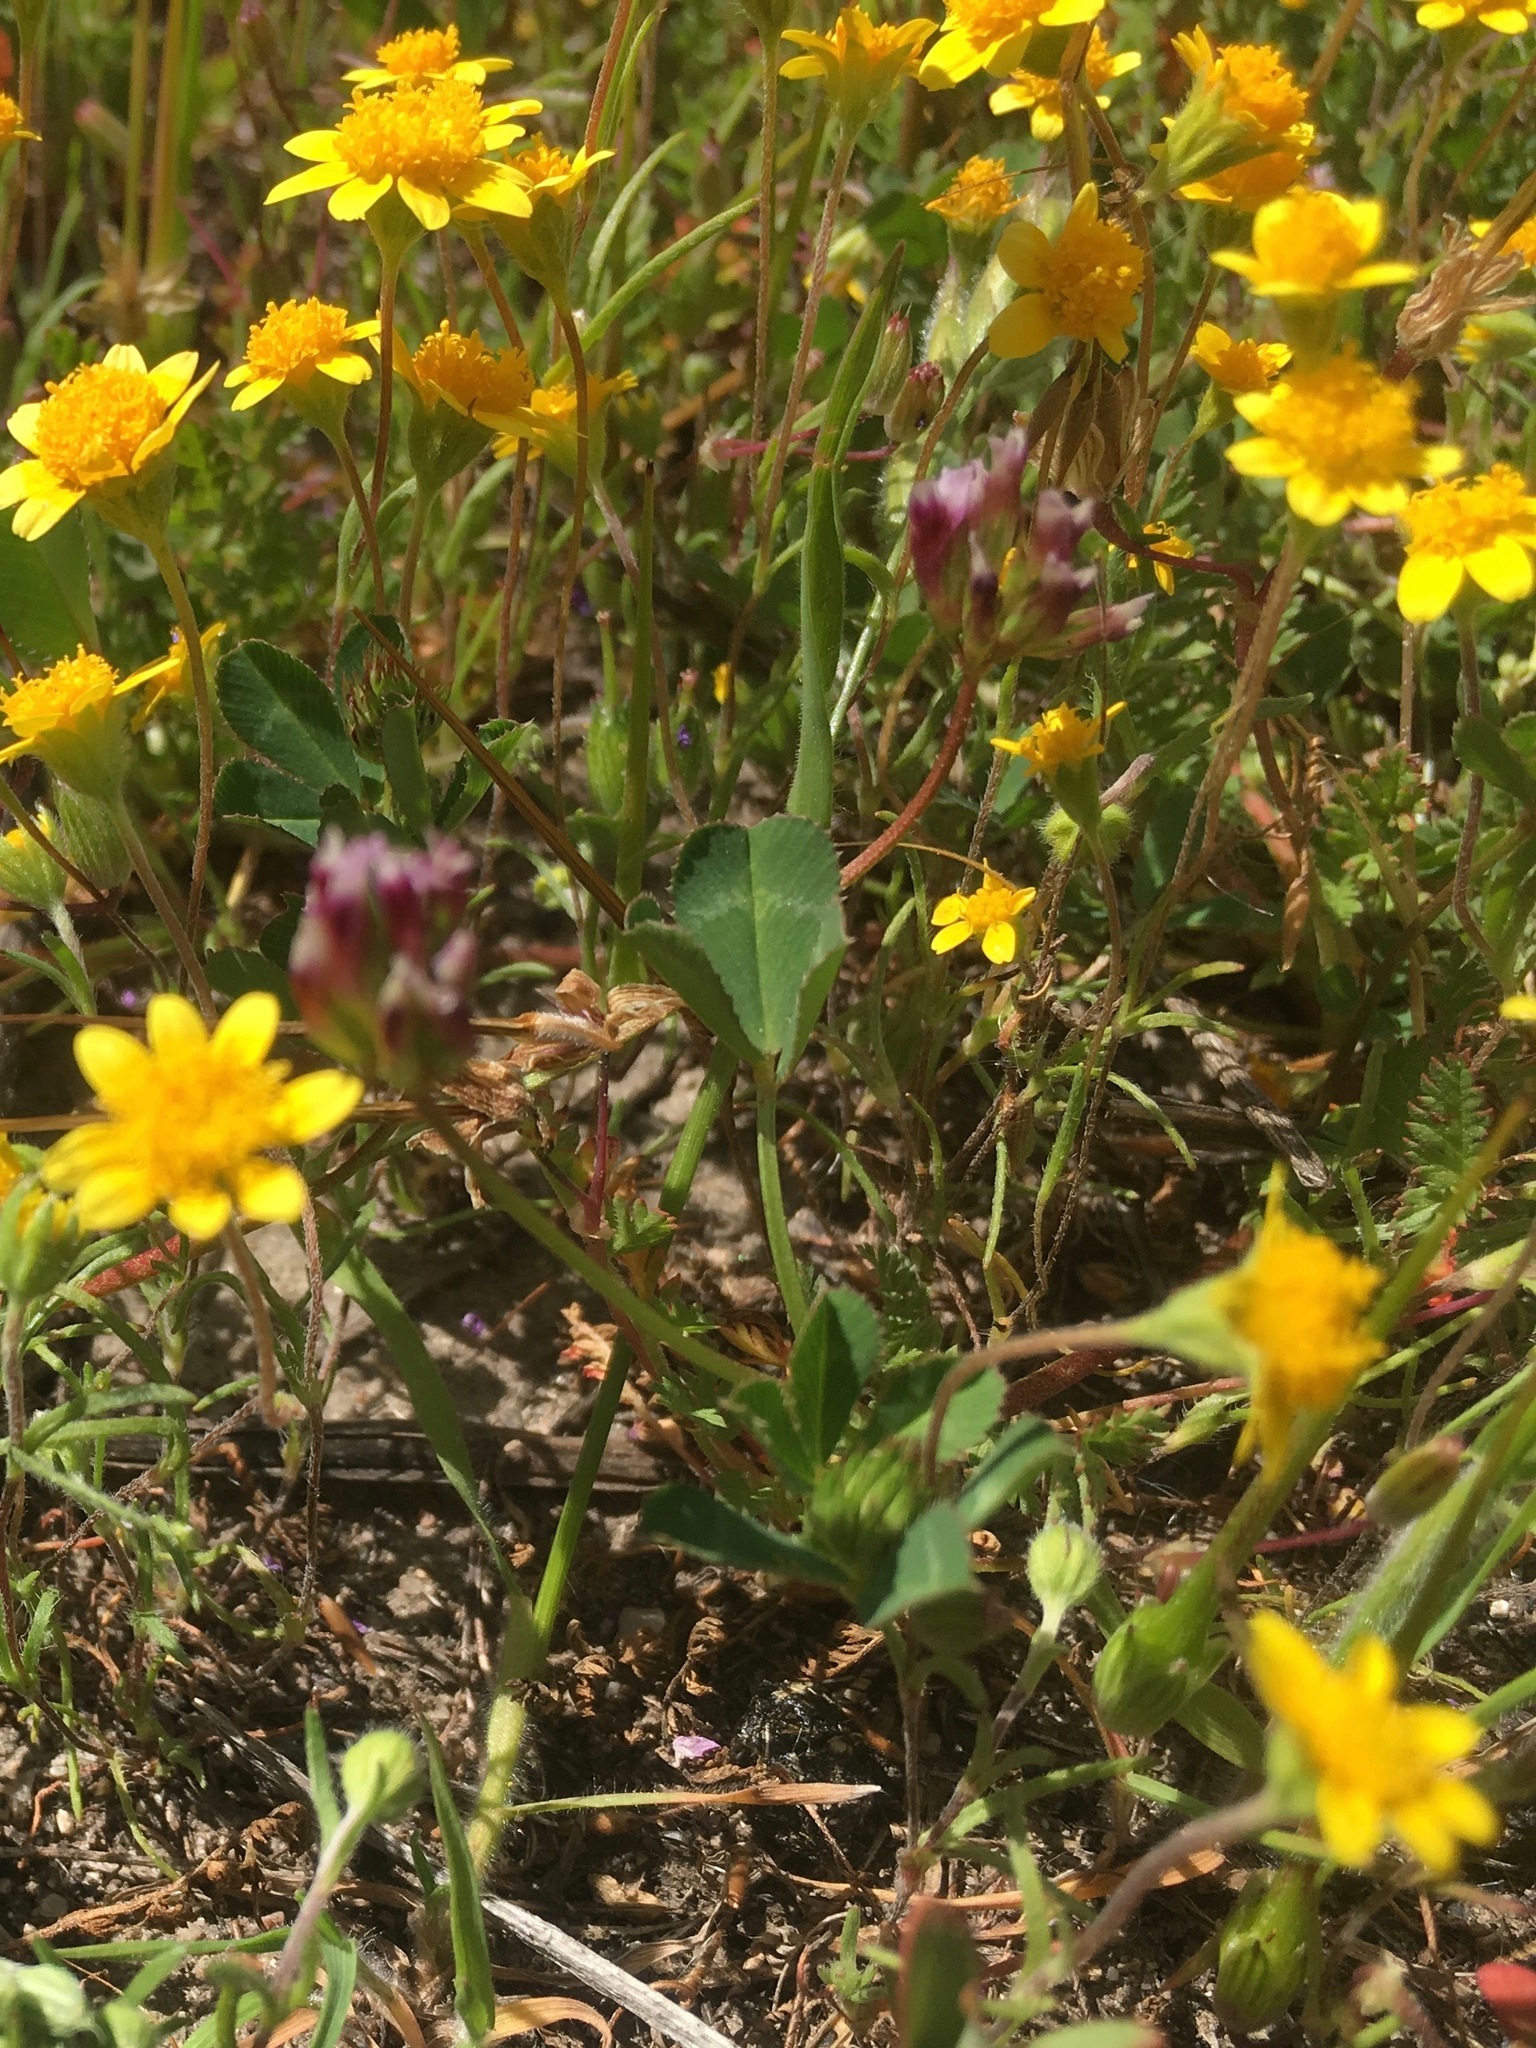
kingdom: Plantae
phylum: Tracheophyta
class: Magnoliopsida
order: Fabales
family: Fabaceae
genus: Trifolium
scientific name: Trifolium gracilentum
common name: Slender clover
